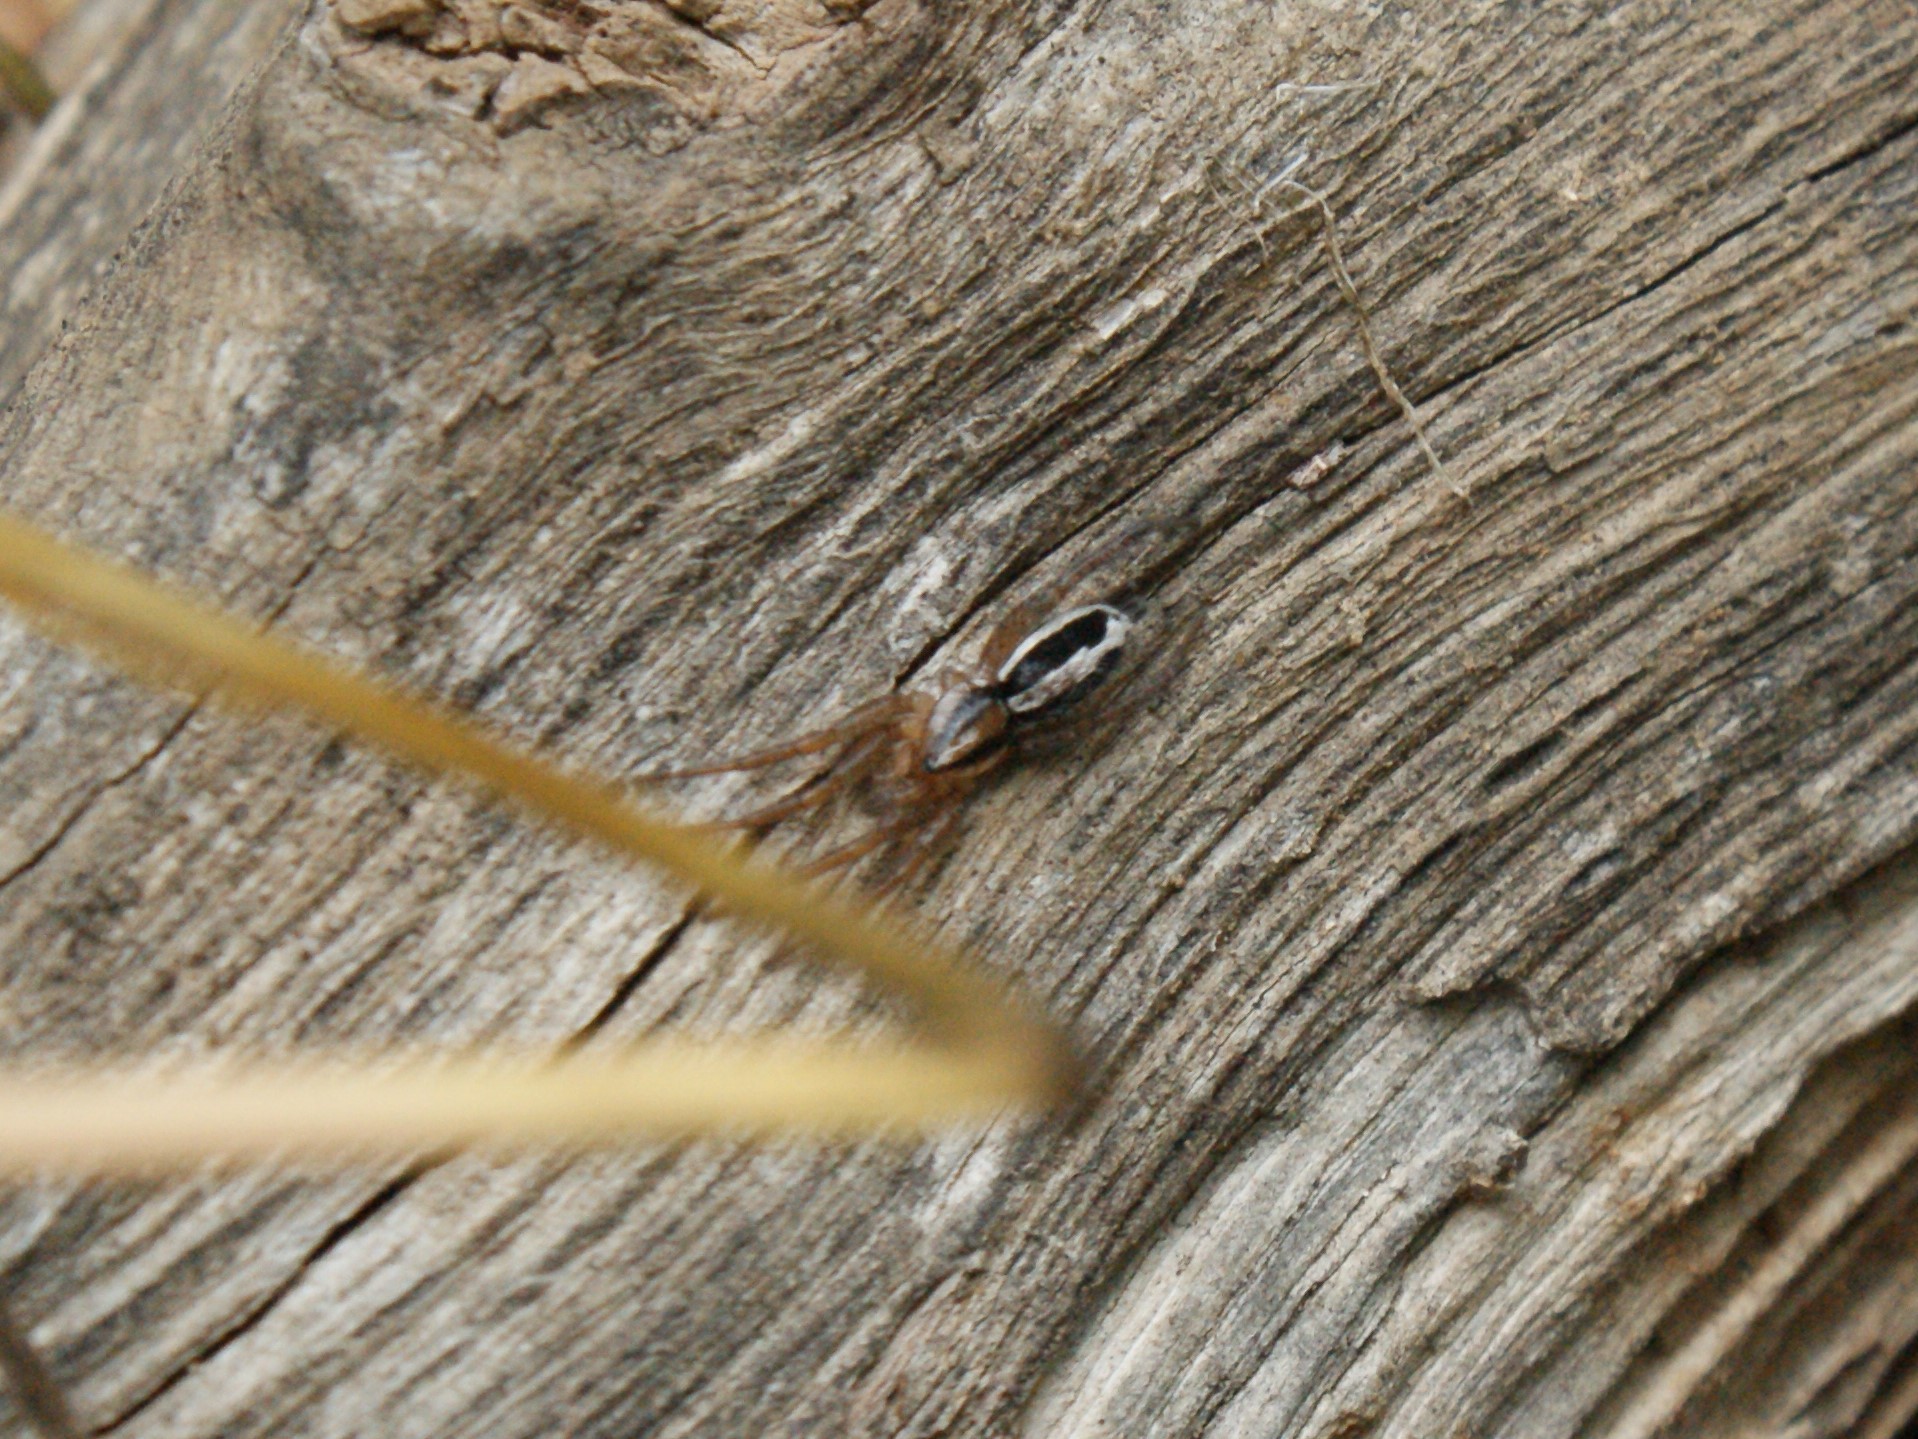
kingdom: Animalia
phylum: Arthropoda
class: Arachnida
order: Araneae
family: Gnaphosidae
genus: Cesonia
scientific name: Cesonia bilineata
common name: Two-lined stealthy ground spider
